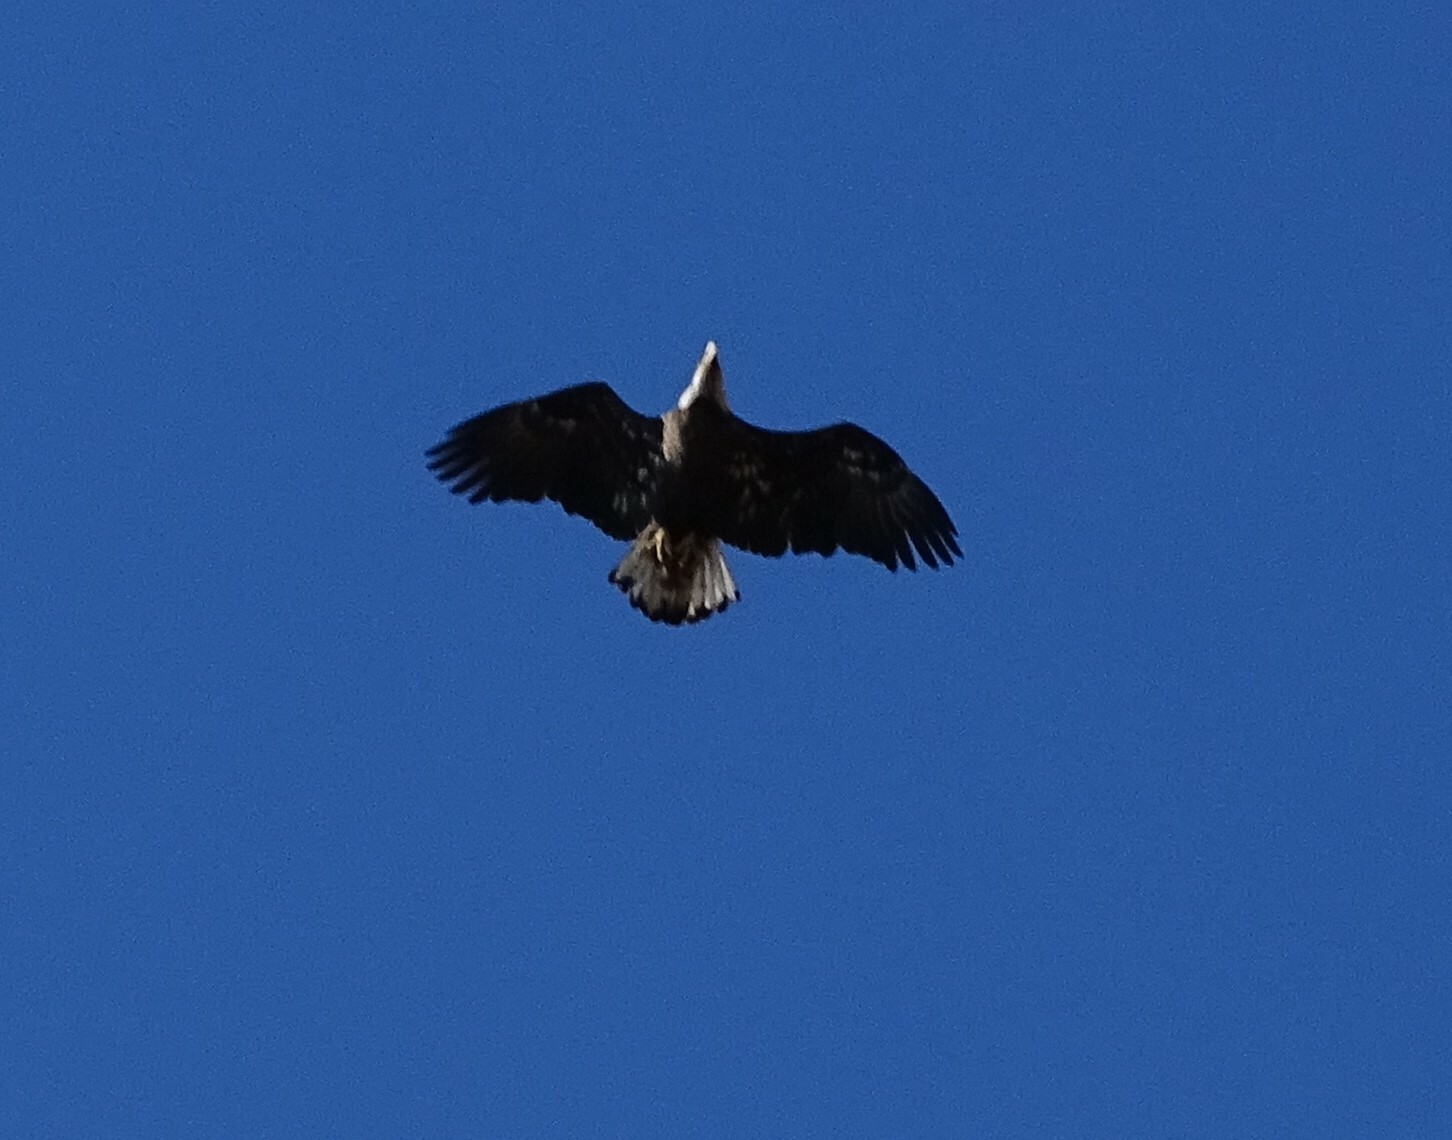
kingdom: Animalia
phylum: Chordata
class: Aves
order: Accipitriformes
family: Accipitridae
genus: Haliaeetus
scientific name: Haliaeetus leucocephalus
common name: Bald eagle
